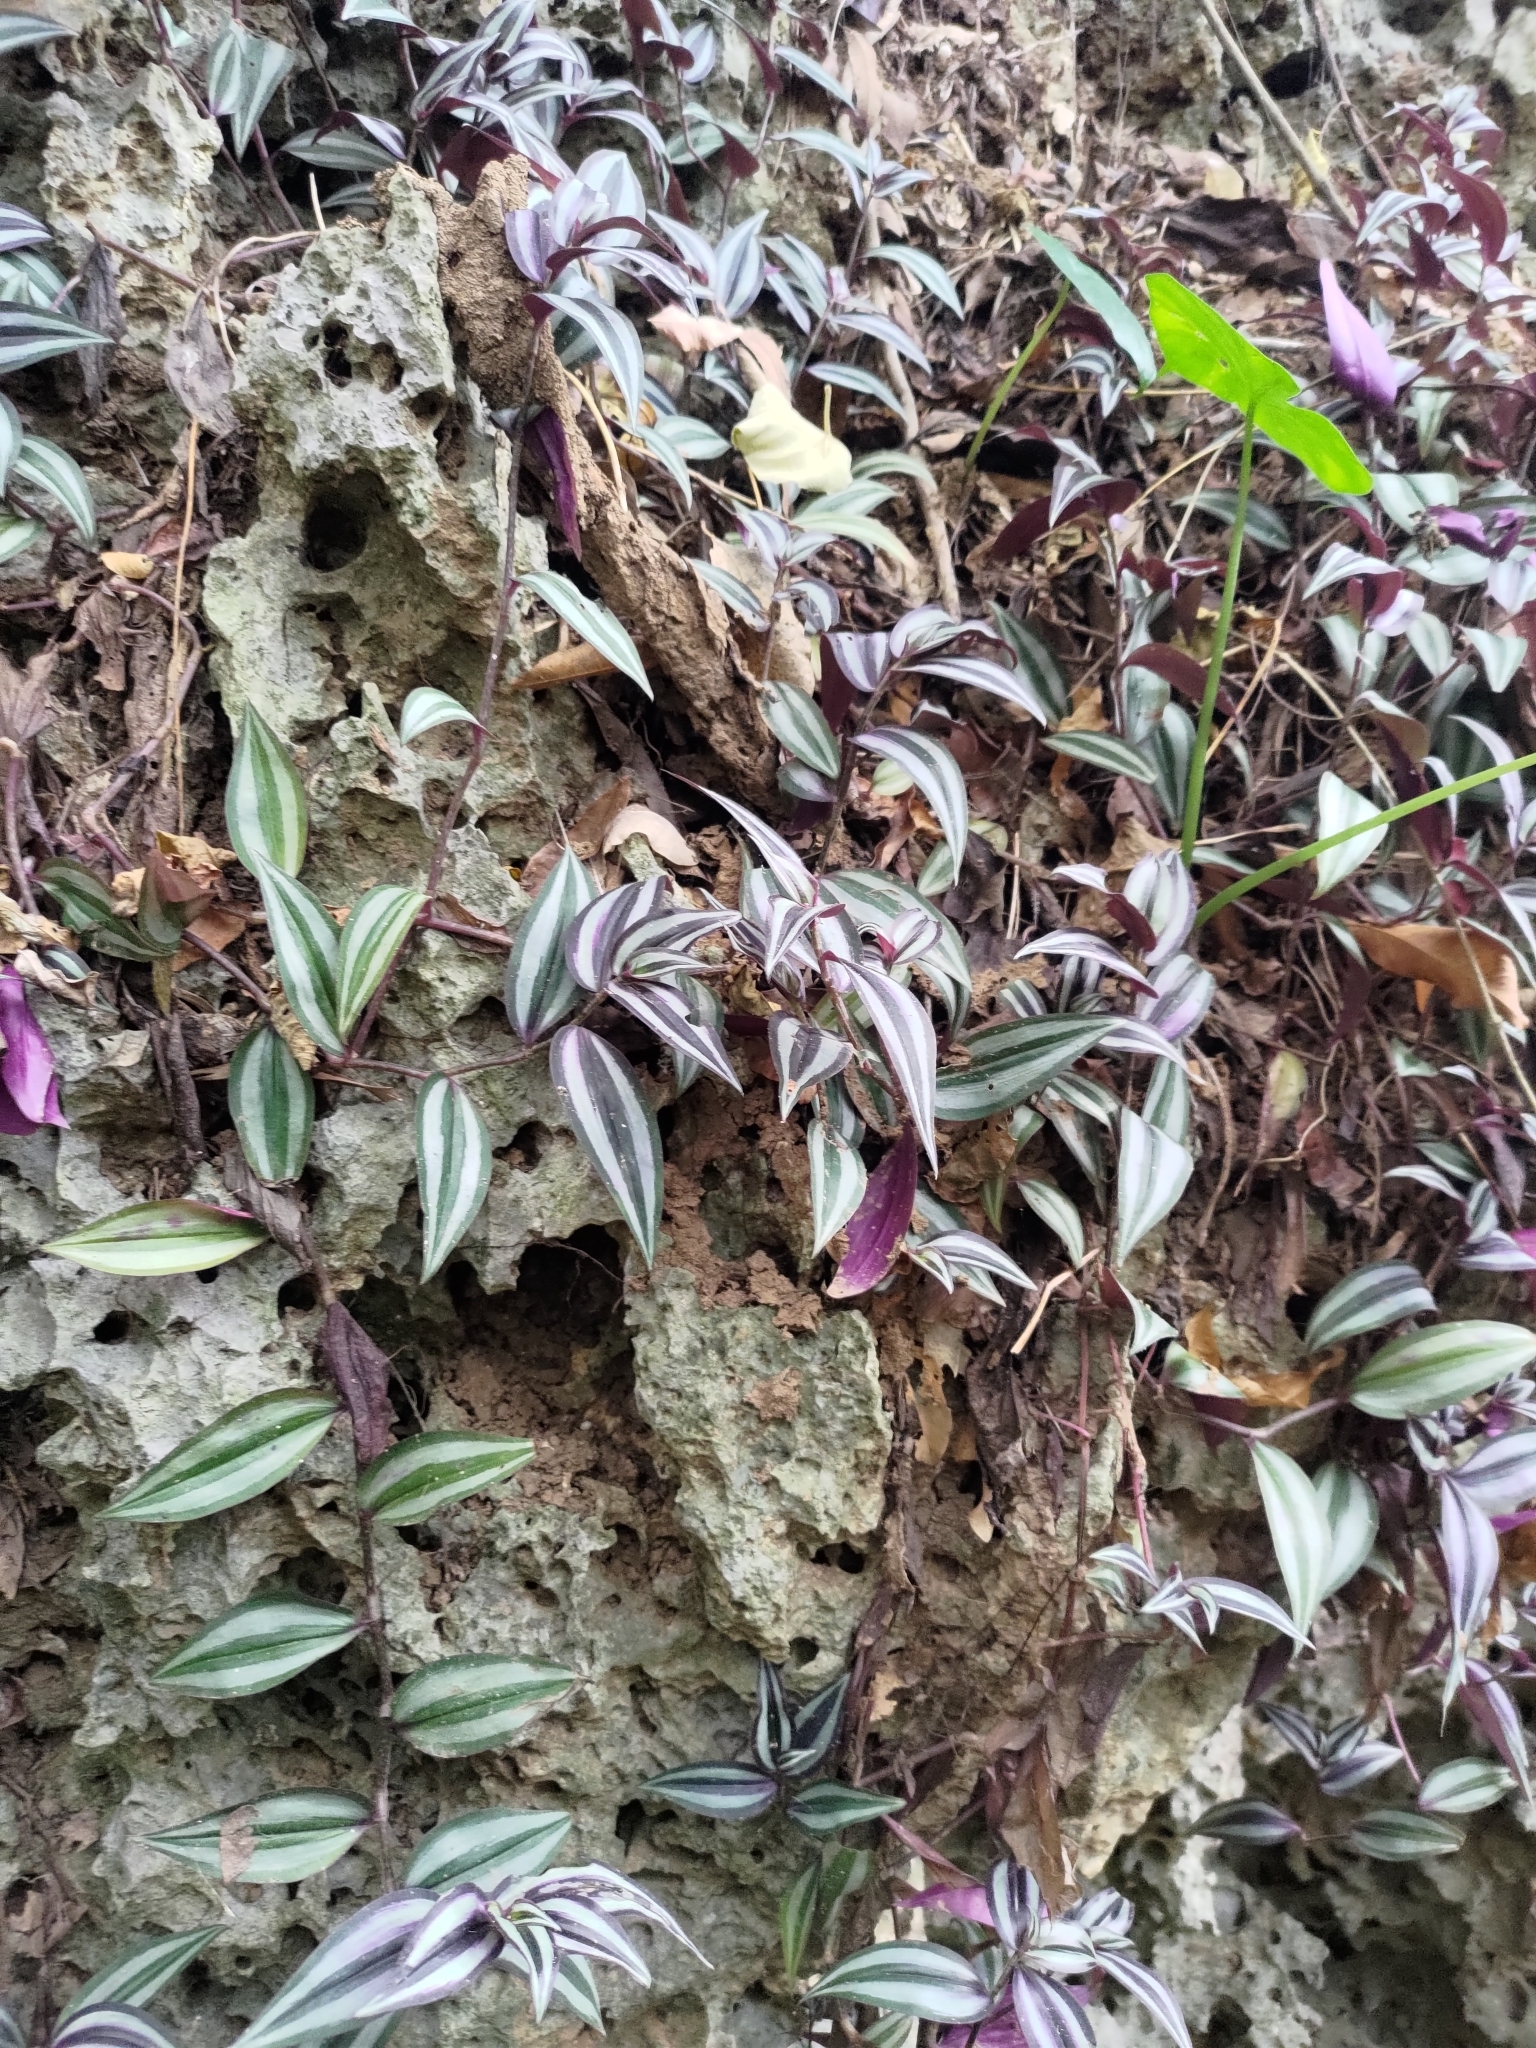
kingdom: Plantae
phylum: Tracheophyta
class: Liliopsida
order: Commelinales
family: Commelinaceae
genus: Tradescantia
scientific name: Tradescantia zebrina
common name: Inchplant
